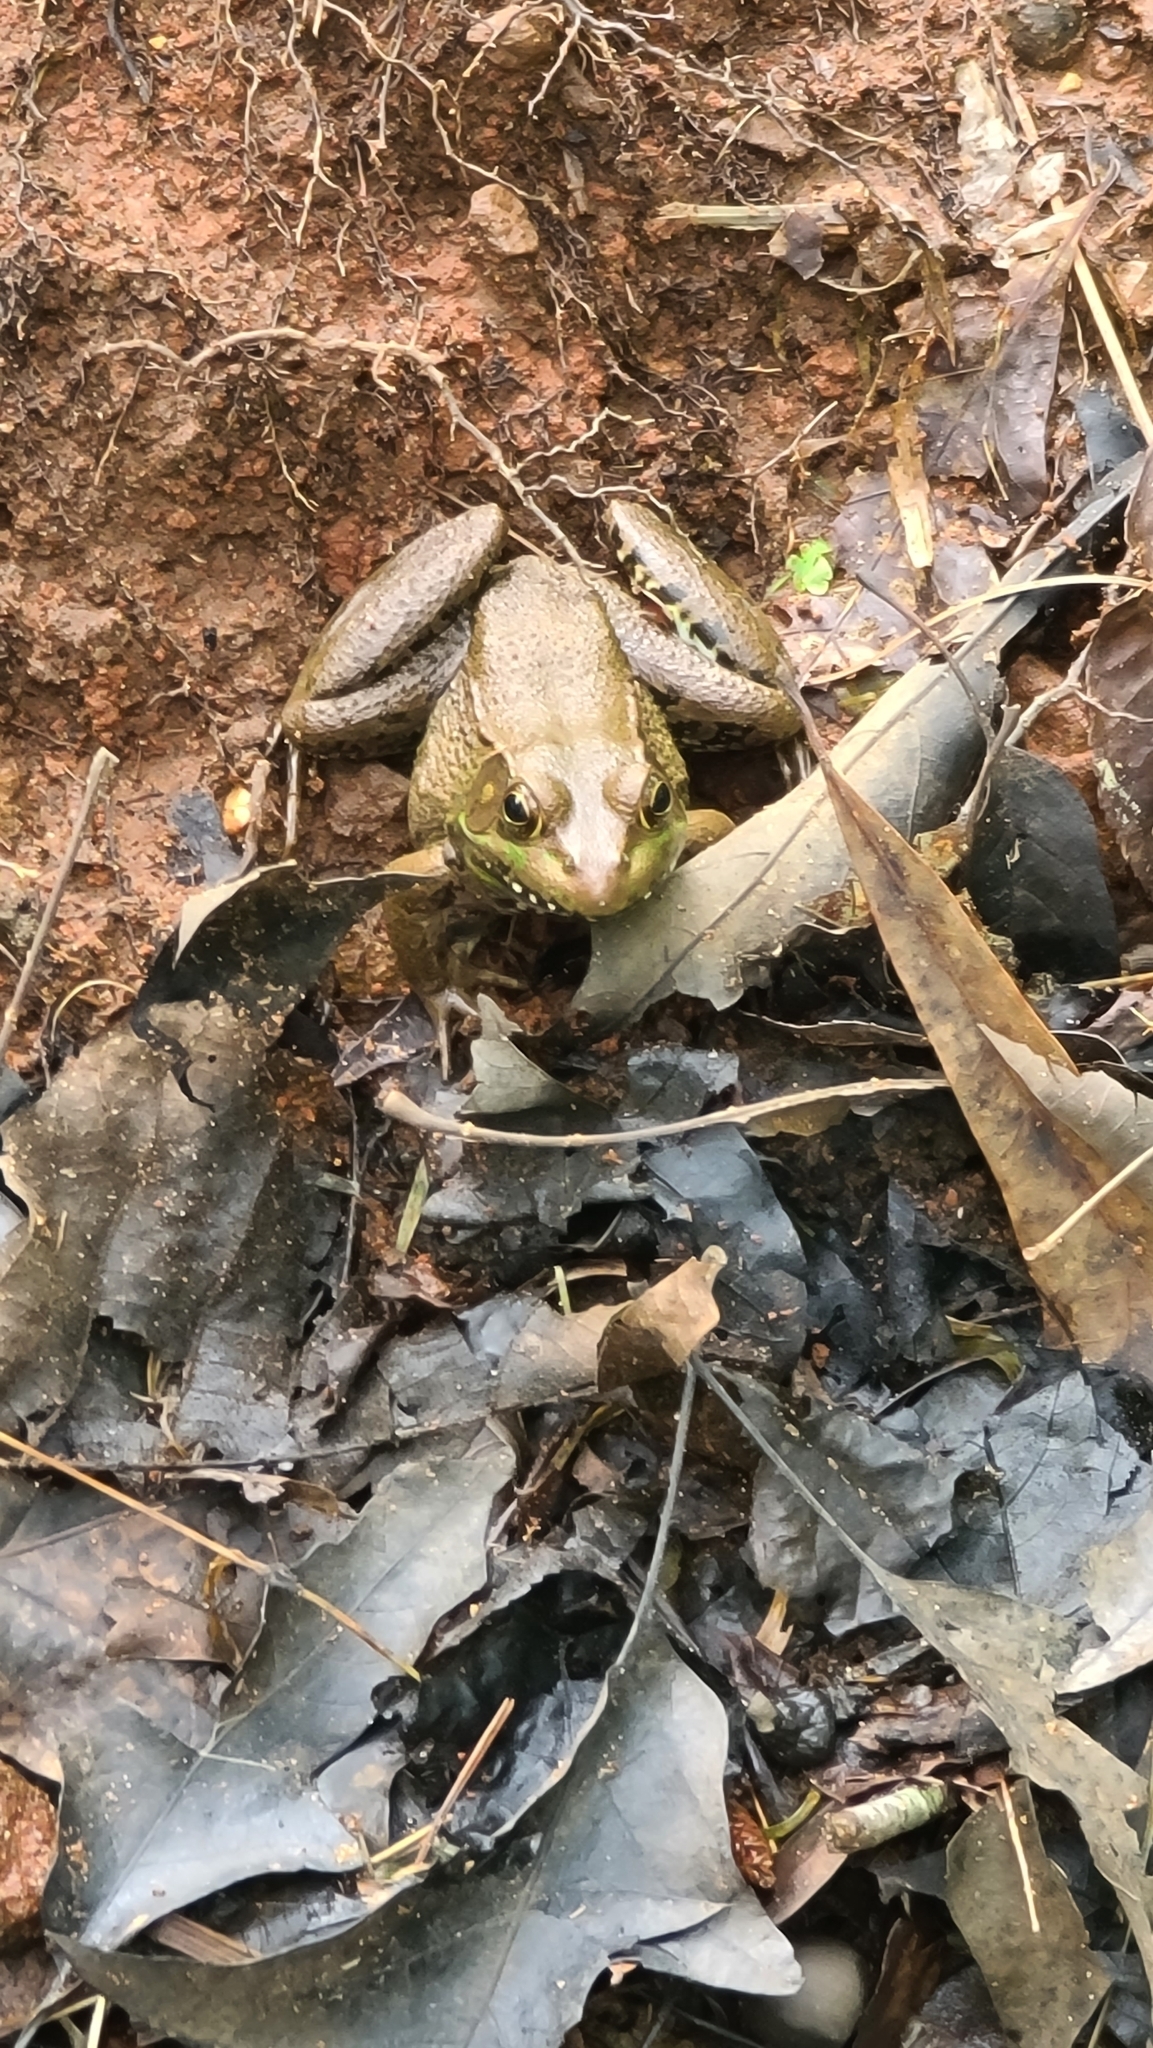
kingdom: Animalia
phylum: Chordata
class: Amphibia
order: Anura
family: Ranidae
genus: Lithobates
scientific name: Lithobates clamitans
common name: Green frog
